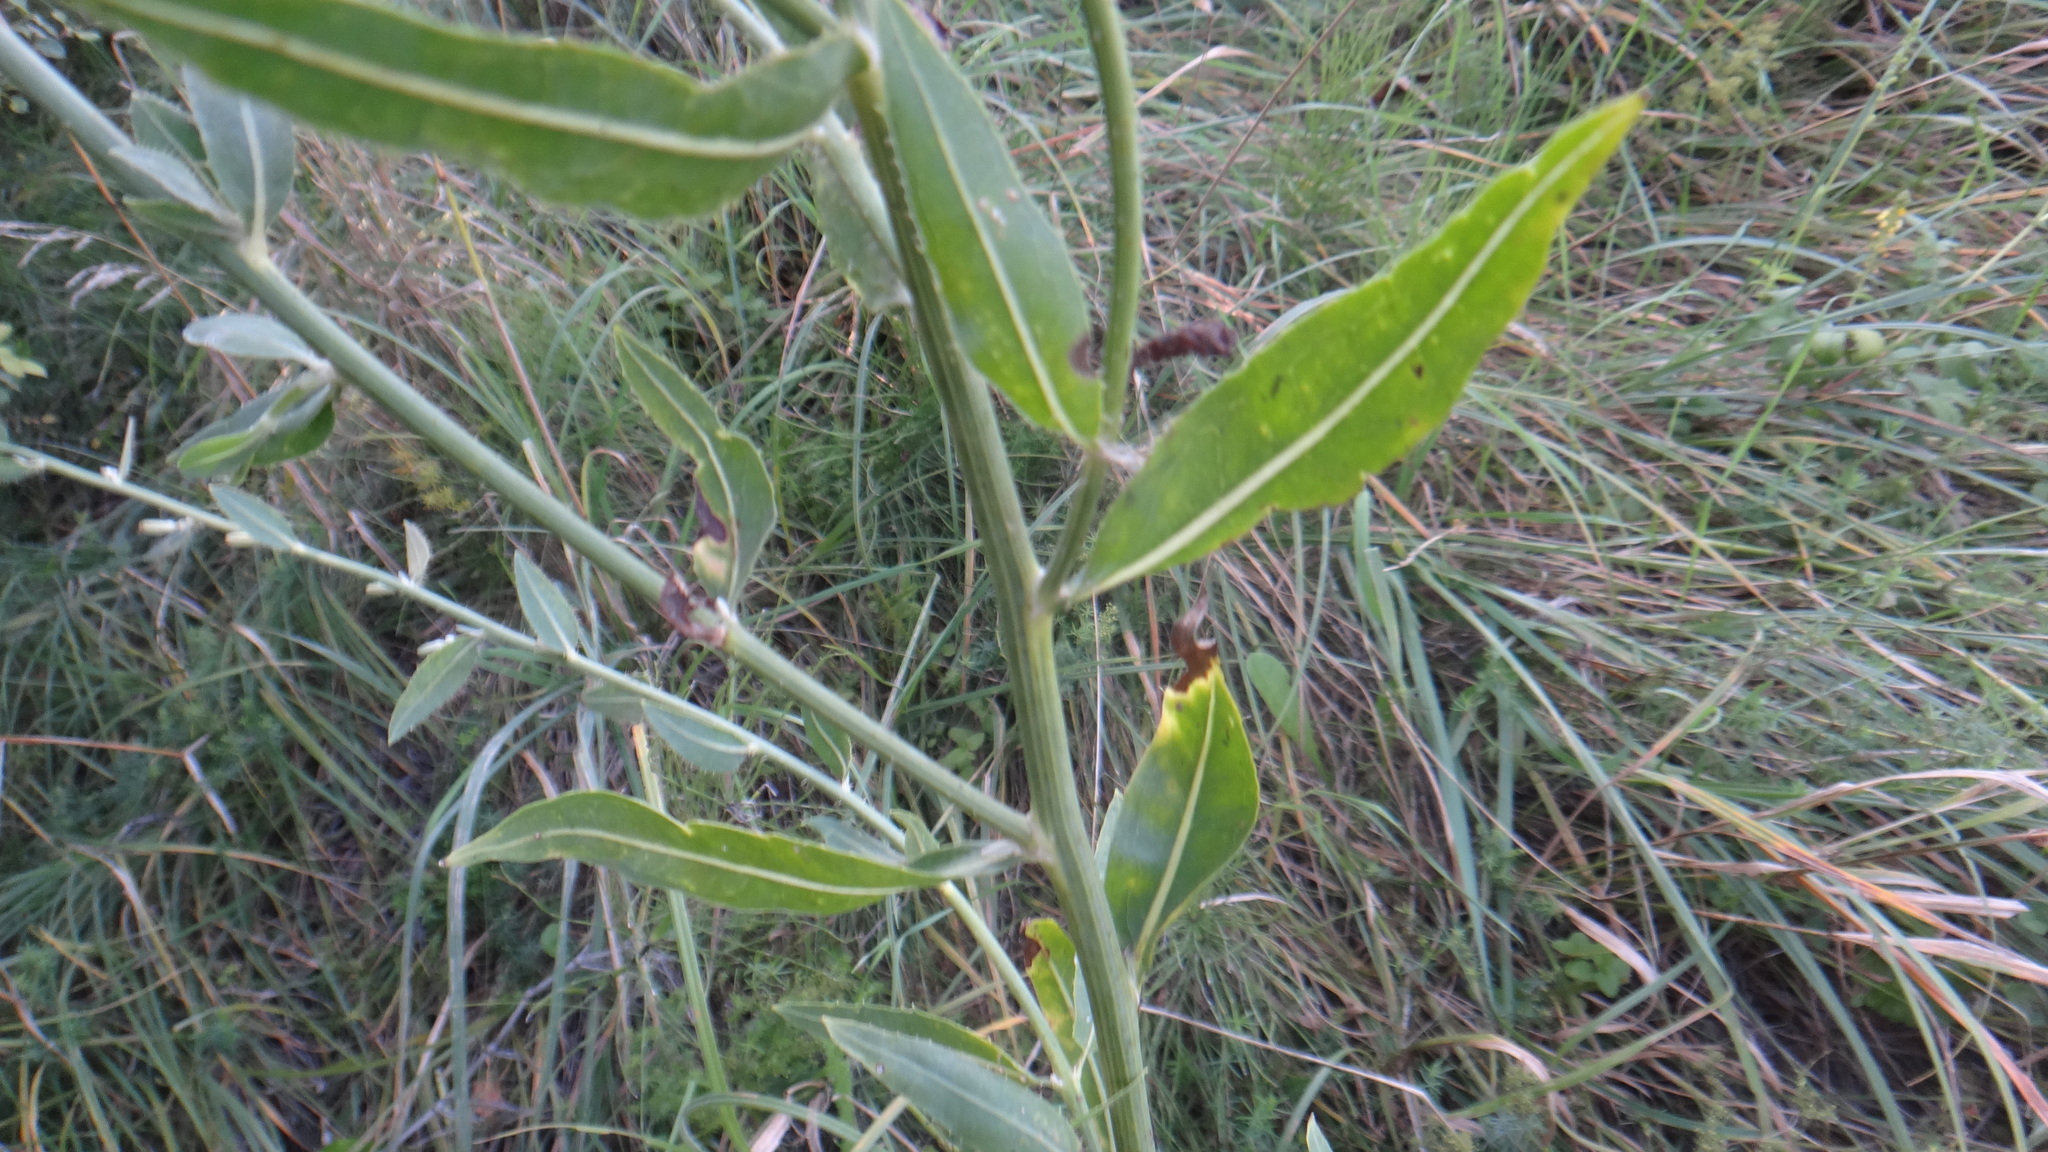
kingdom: Plantae
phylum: Tracheophyta
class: Magnoliopsida
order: Asterales
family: Asteraceae
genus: Chondrilla
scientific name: Chondrilla latifolia
